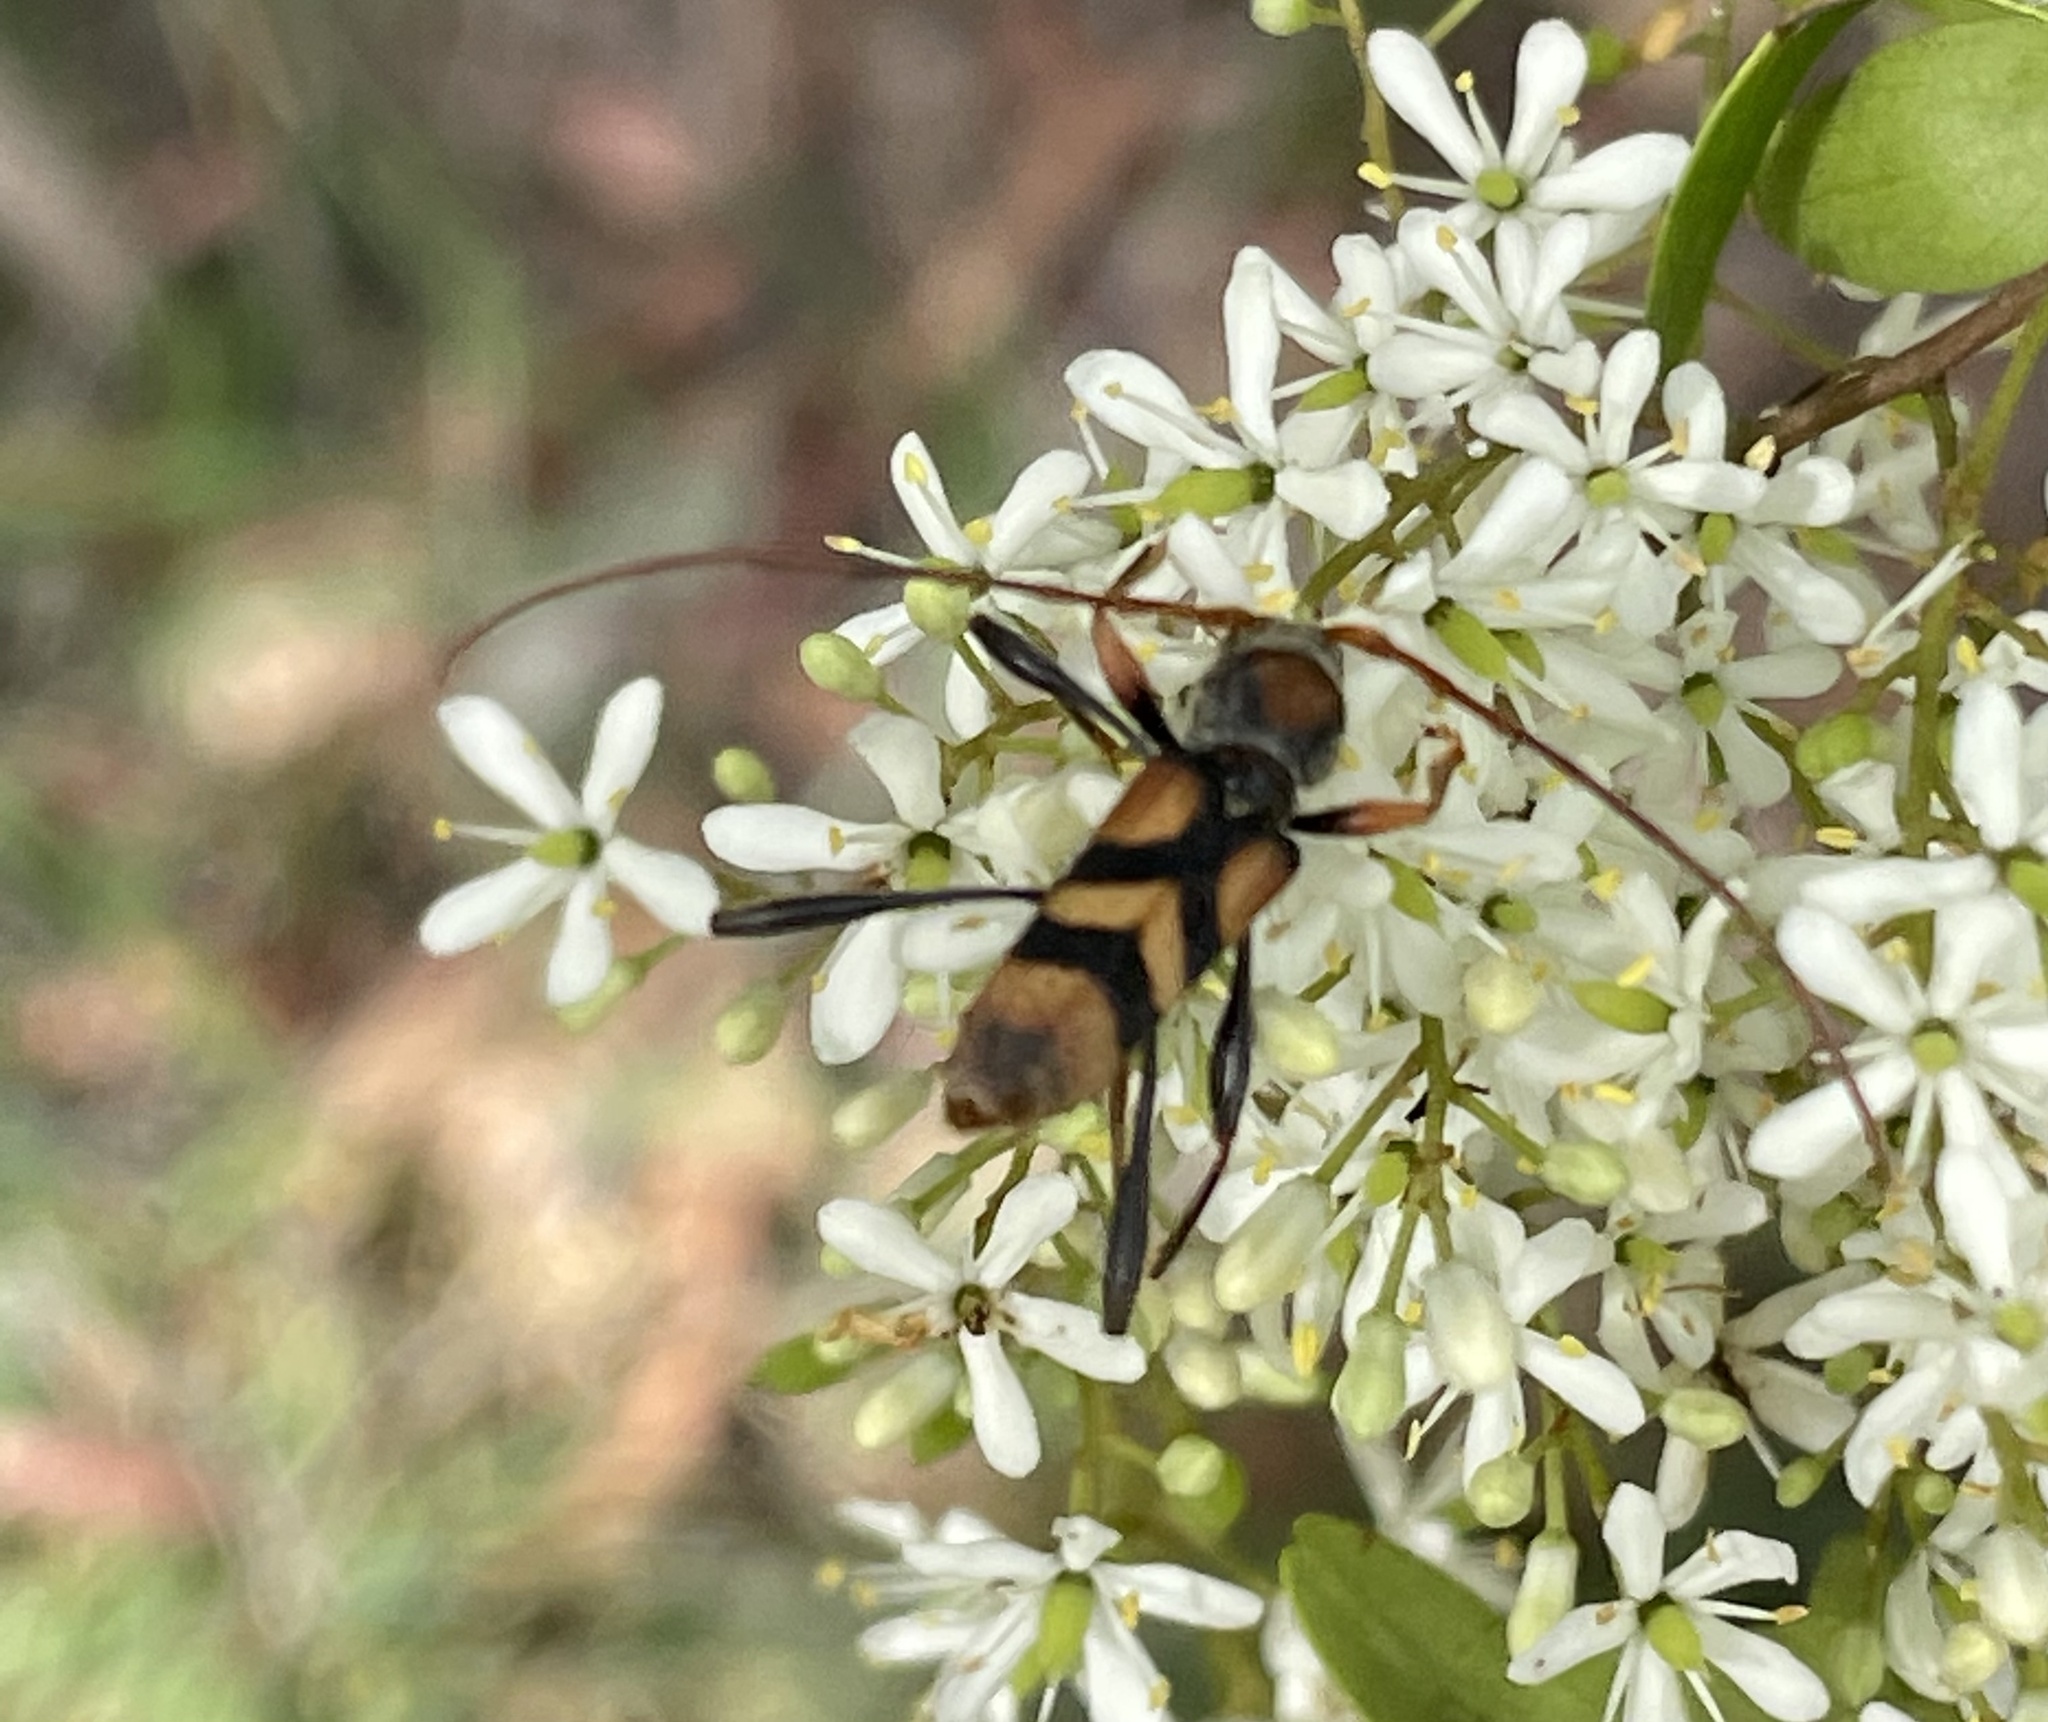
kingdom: Animalia
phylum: Arthropoda
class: Insecta
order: Coleoptera
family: Cerambycidae
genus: Aridaeus
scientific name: Aridaeus thoracicus
